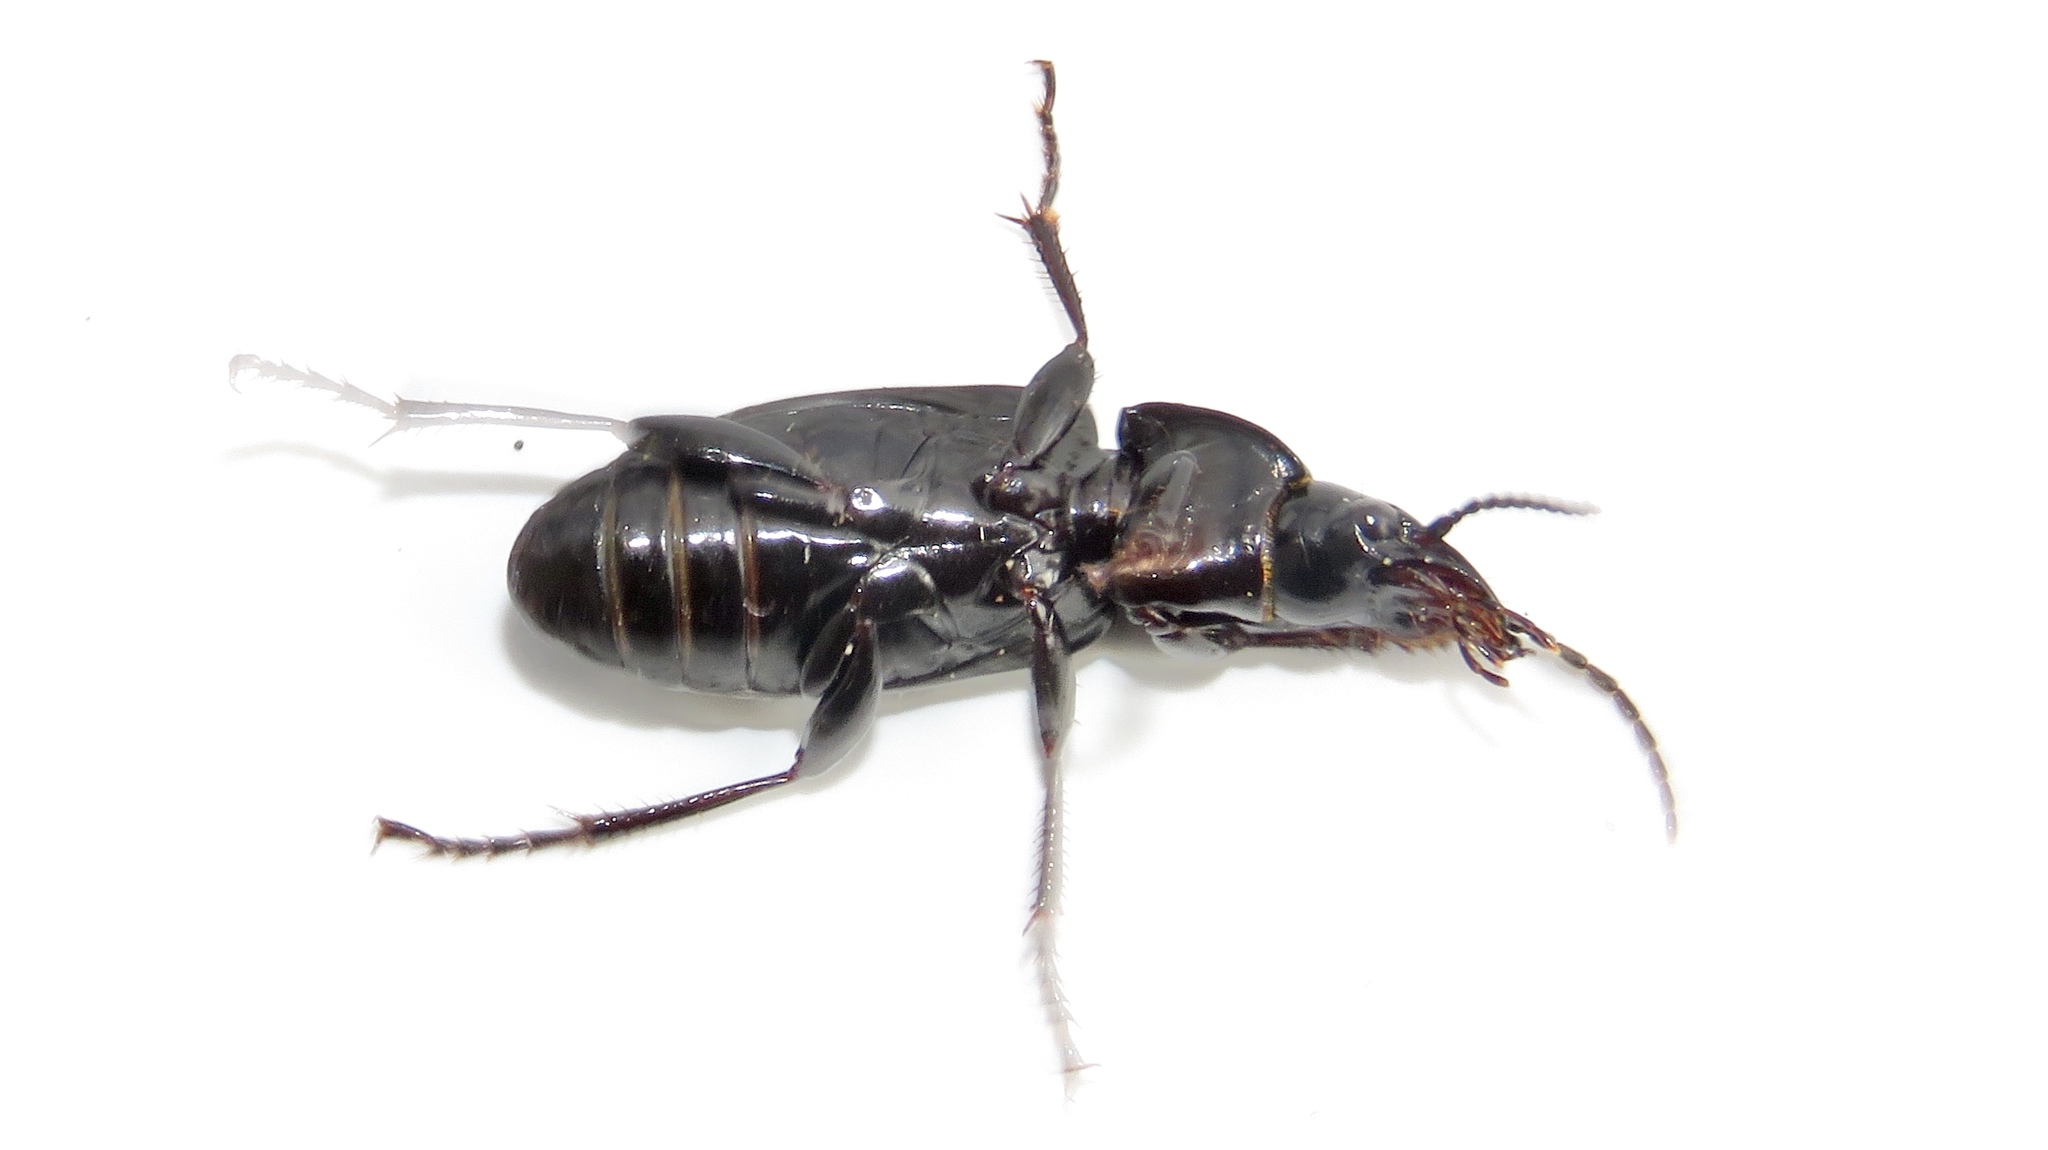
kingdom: Animalia
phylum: Arthropoda
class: Insecta
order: Coleoptera
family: Carabidae
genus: Pterostichus
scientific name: Pterostichus melanarius
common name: European dark harp ground beetle
